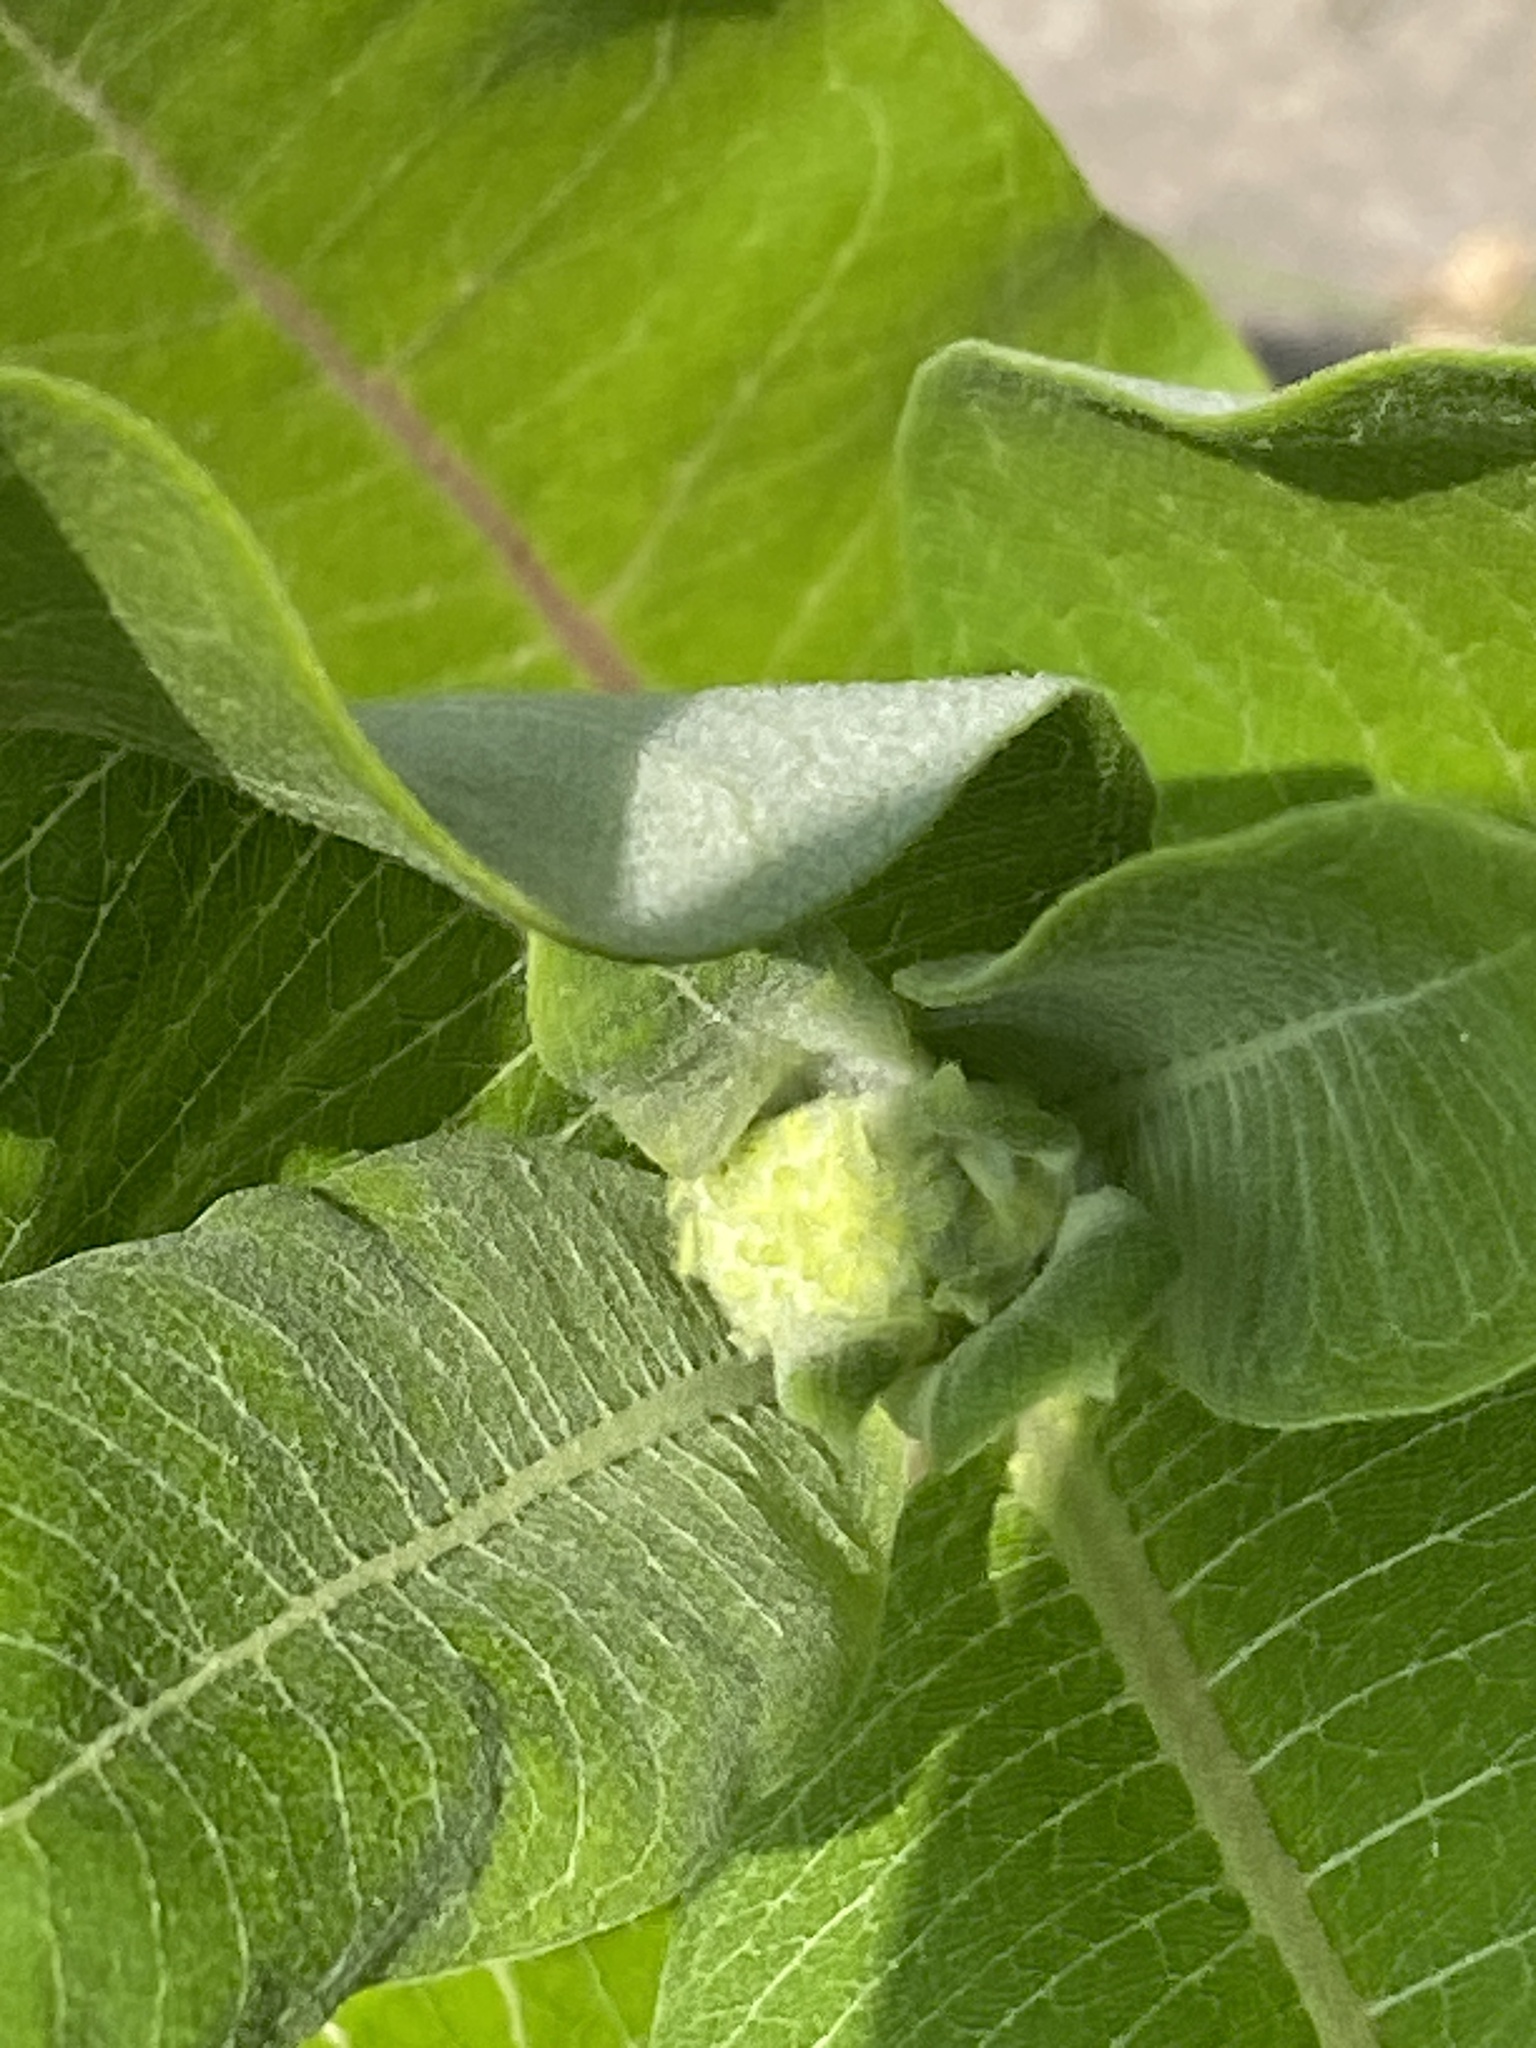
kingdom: Plantae
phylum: Tracheophyta
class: Magnoliopsida
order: Gentianales
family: Apocynaceae
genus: Asclepias
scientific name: Asclepias syriaca
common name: Common milkweed
